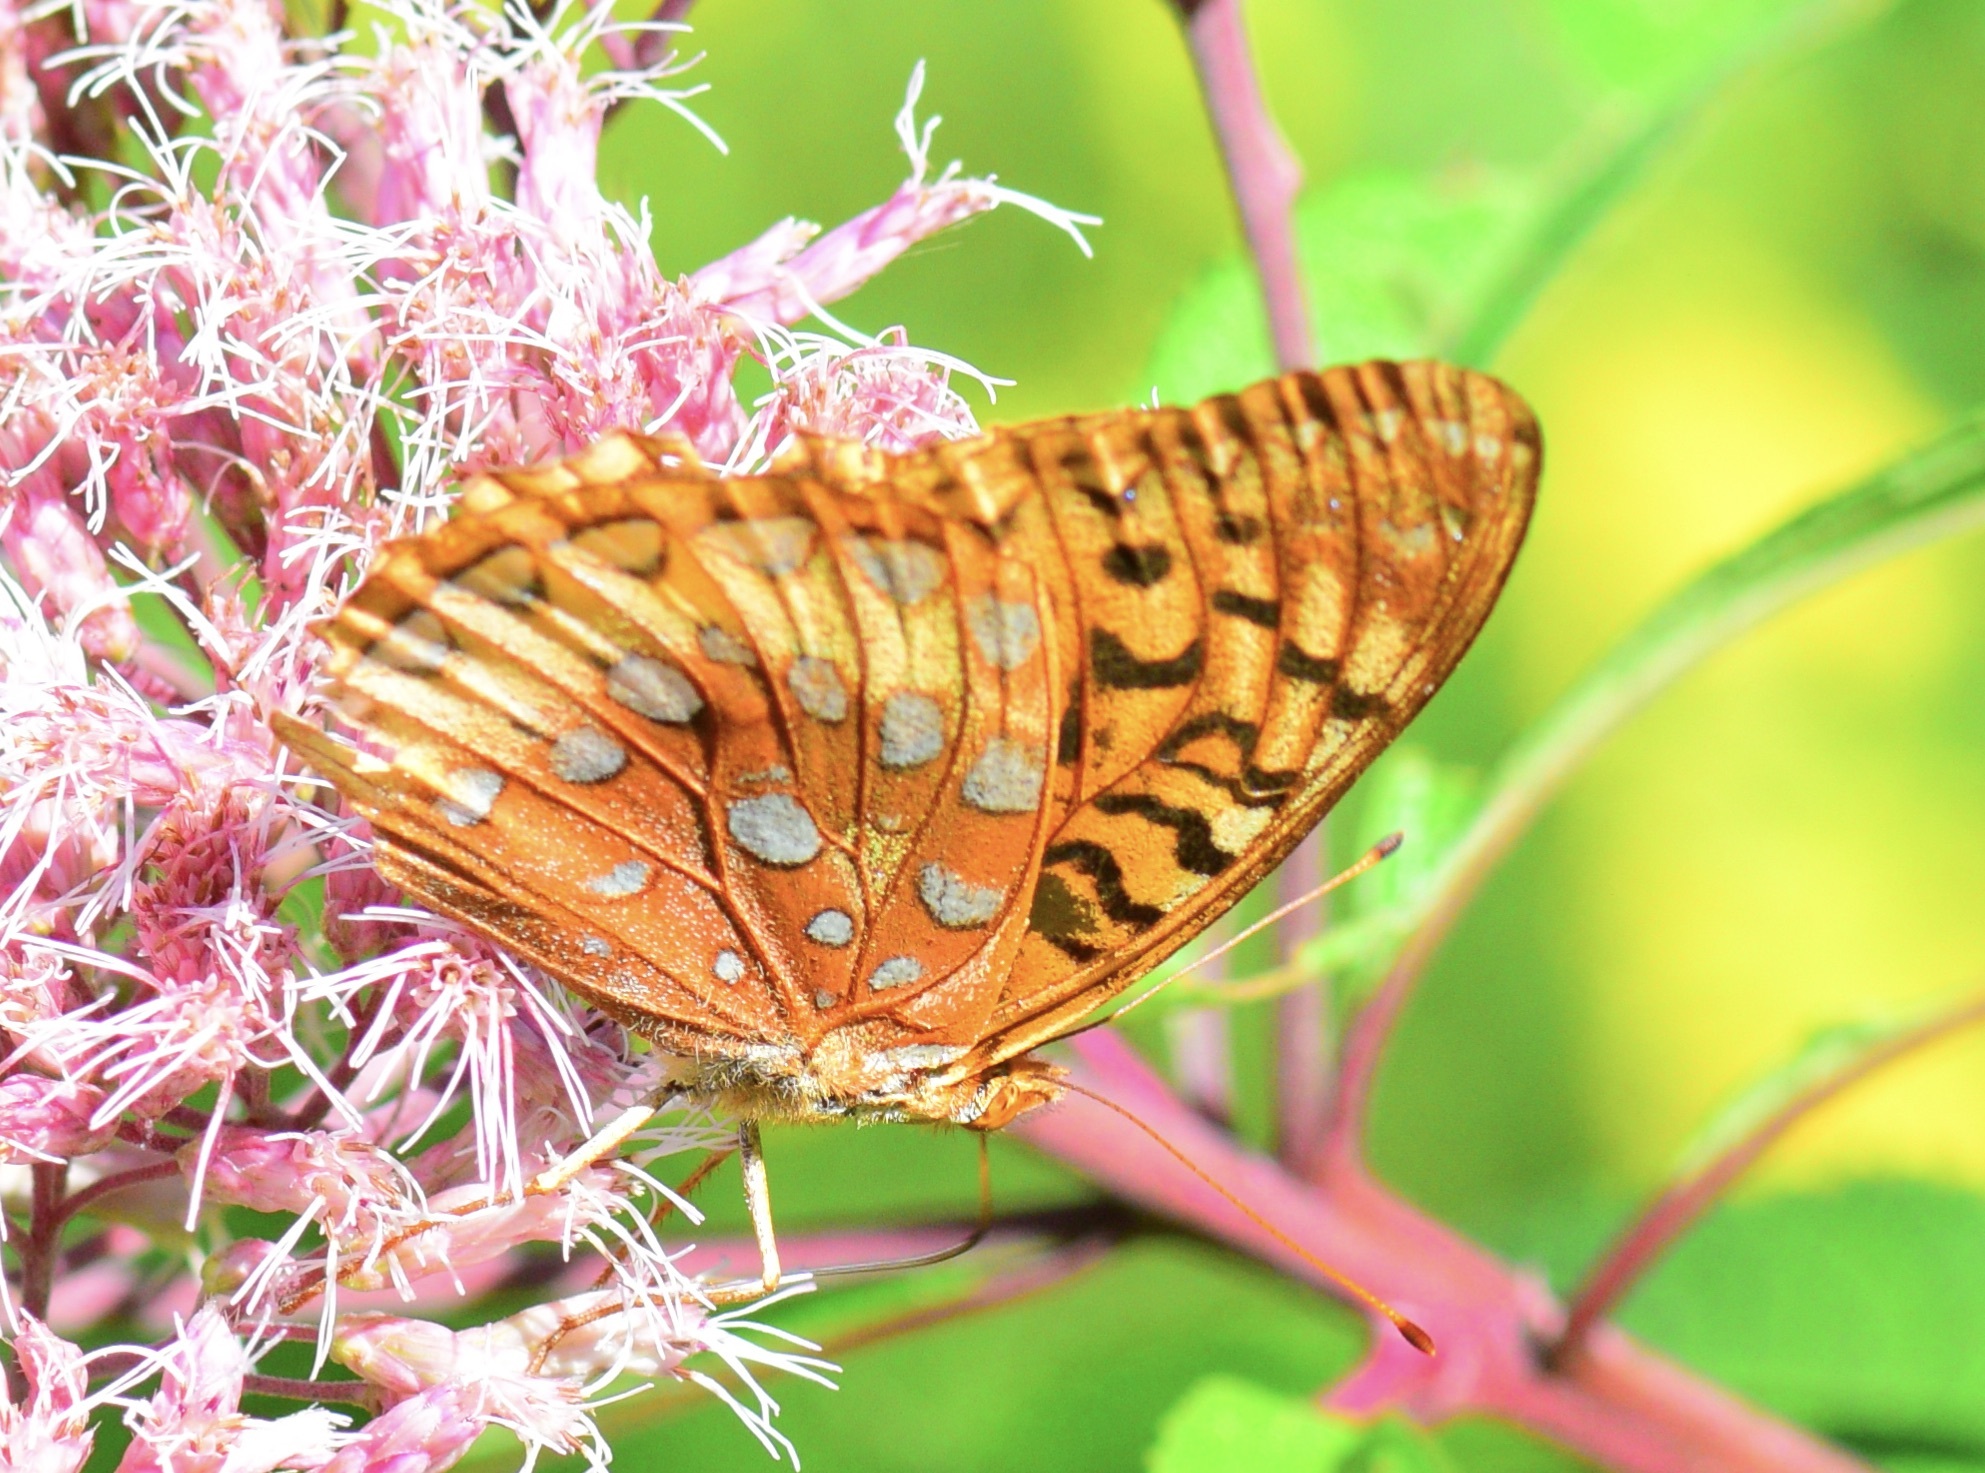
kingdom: Animalia
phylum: Arthropoda
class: Insecta
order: Lepidoptera
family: Nymphalidae
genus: Speyeria
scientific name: Speyeria cybele
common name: Great spangled fritillary
